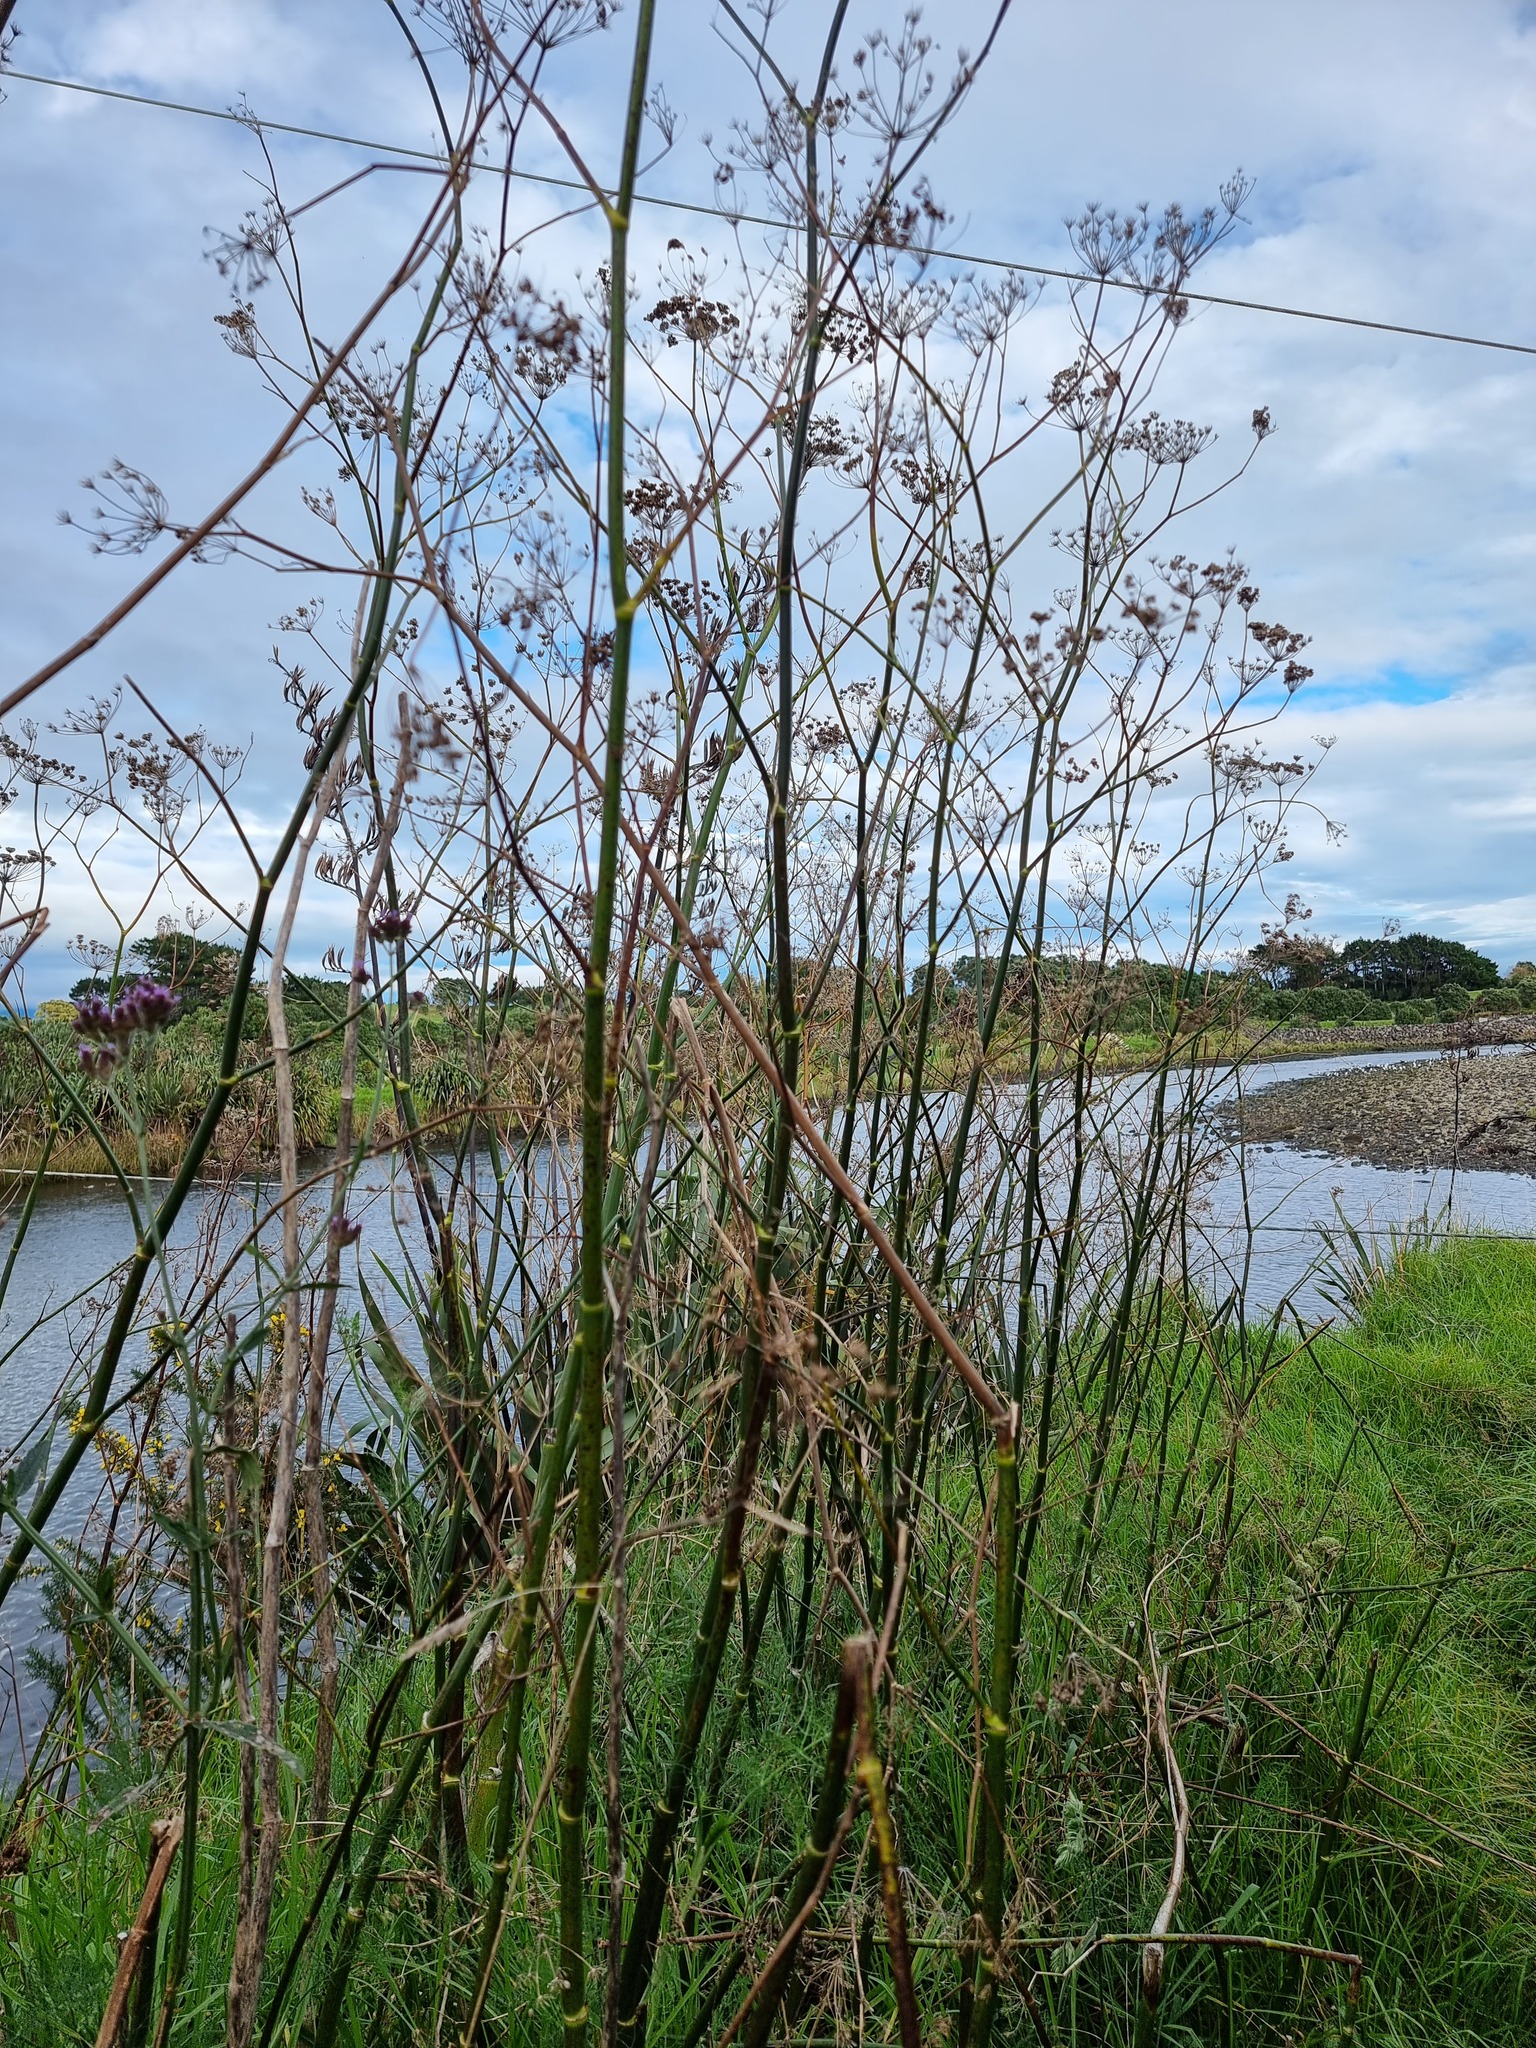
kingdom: Plantae
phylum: Tracheophyta
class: Magnoliopsida
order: Apiales
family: Apiaceae
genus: Foeniculum
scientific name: Foeniculum vulgare
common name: Fennel
